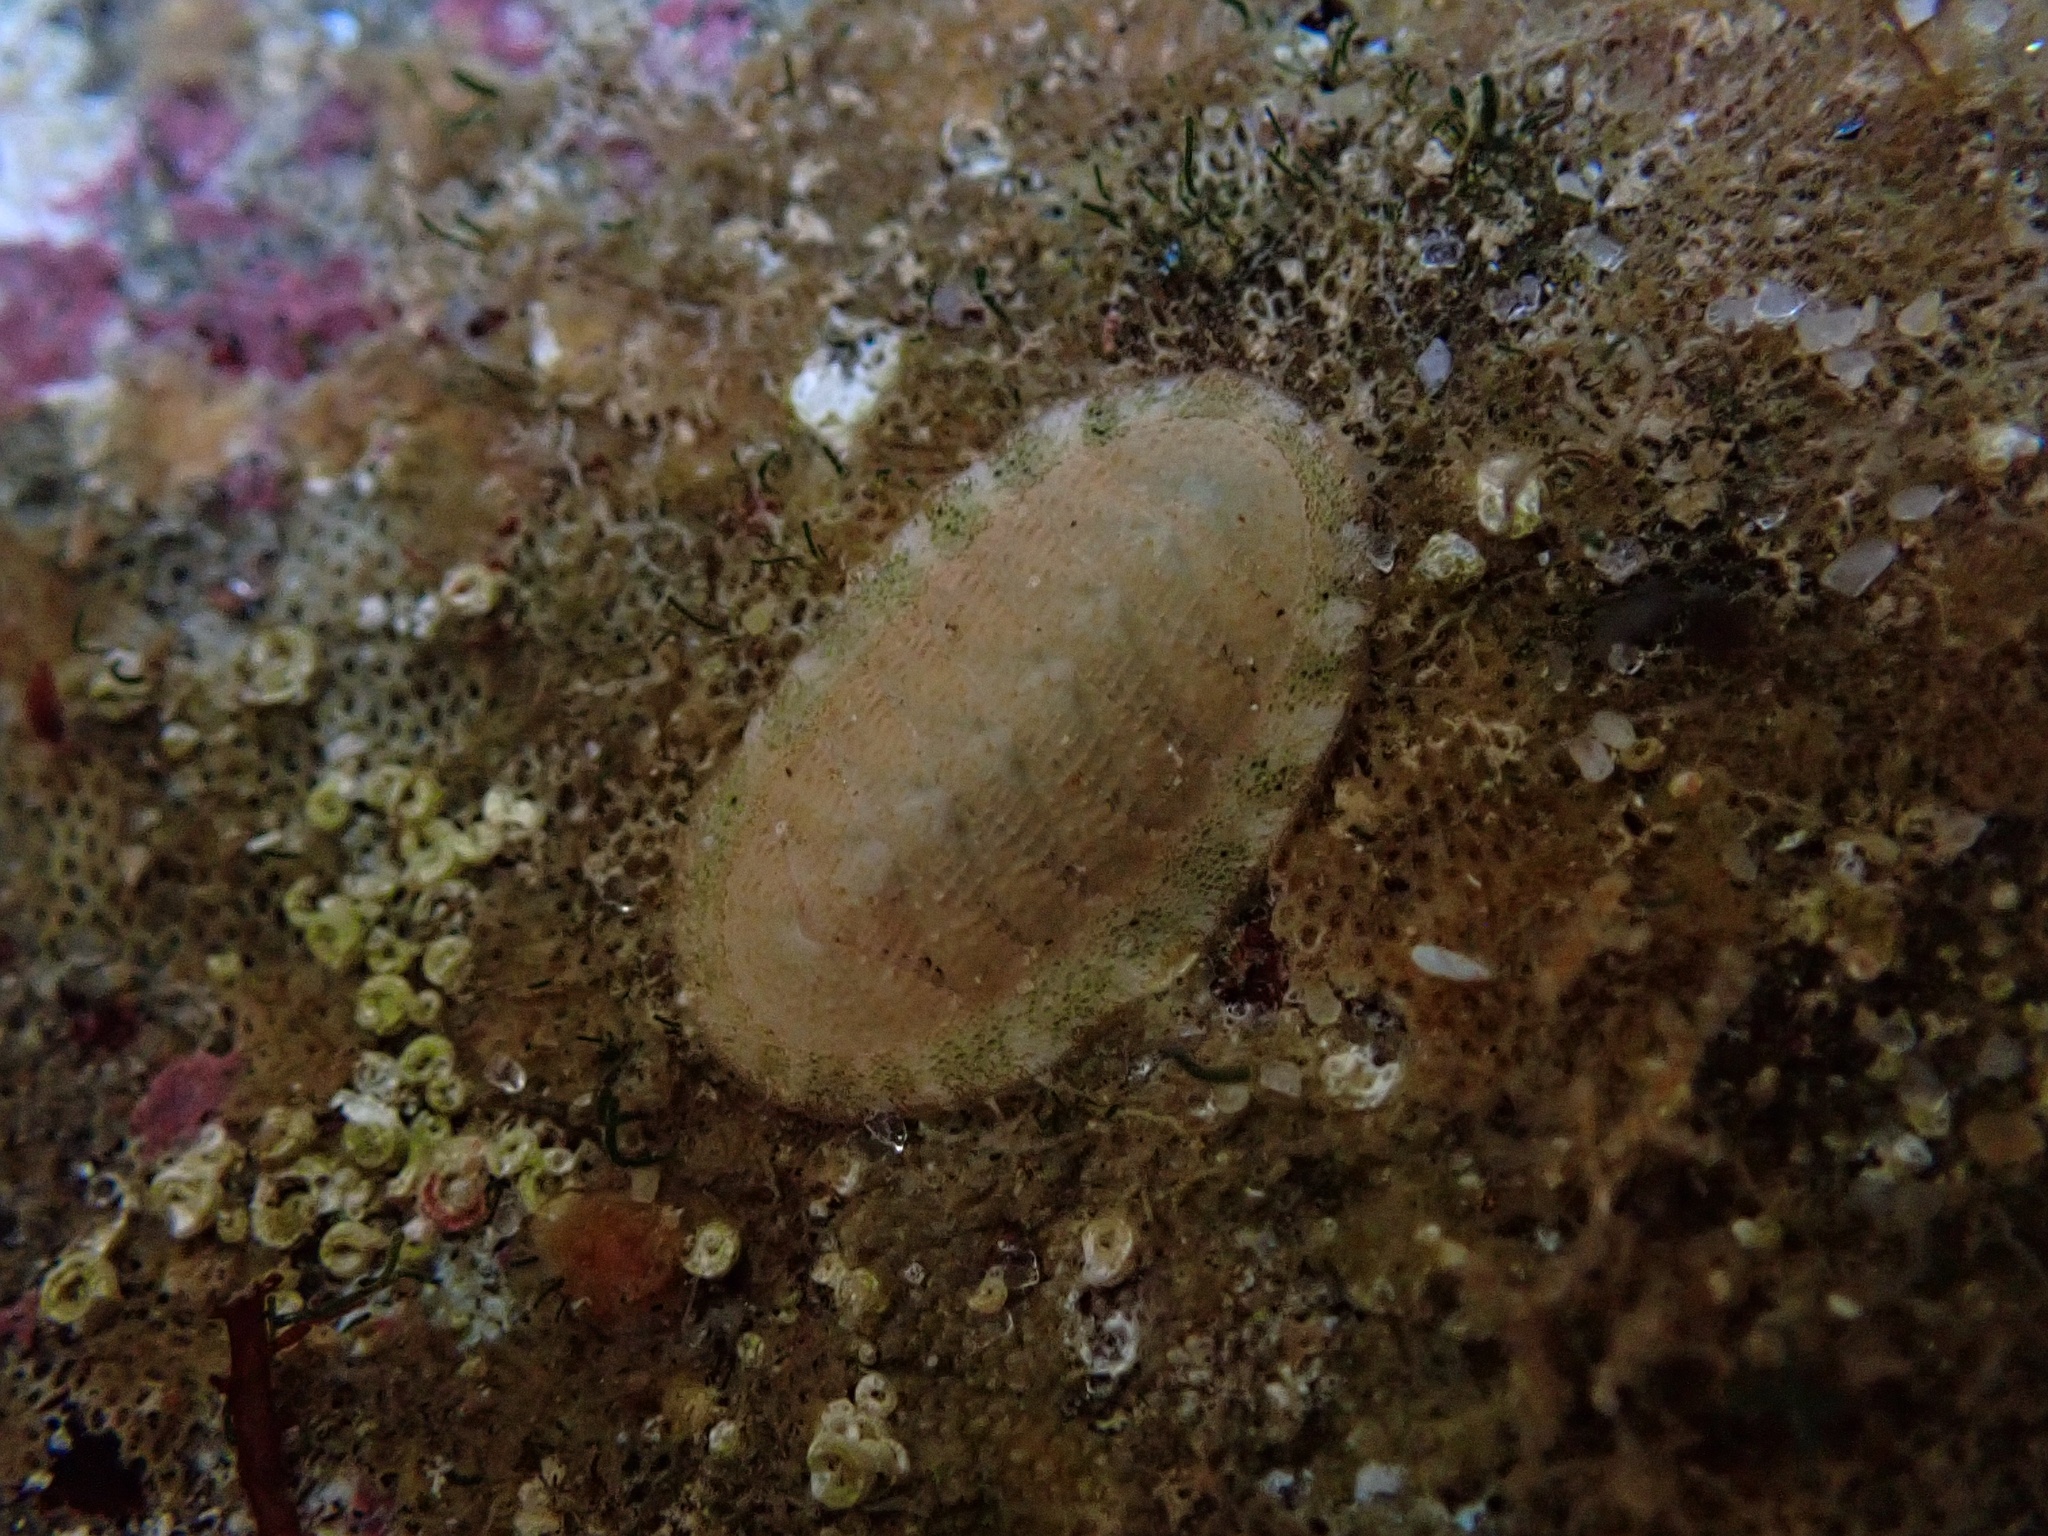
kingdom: Animalia
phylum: Mollusca
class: Polyplacophora
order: Chitonida
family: Ischnochitonidae
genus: Lepidozona
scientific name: Lepidozona pectinulata
